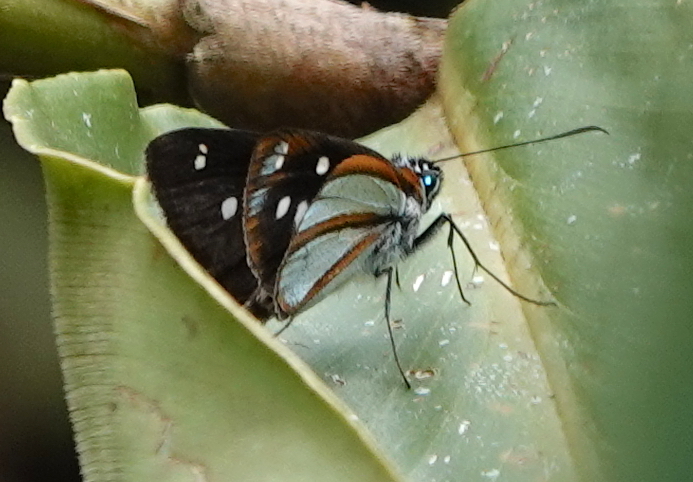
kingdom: Animalia
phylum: Arthropoda
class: Insecta
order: Lepidoptera
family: Hesperiidae
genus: Corra
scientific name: Corra
